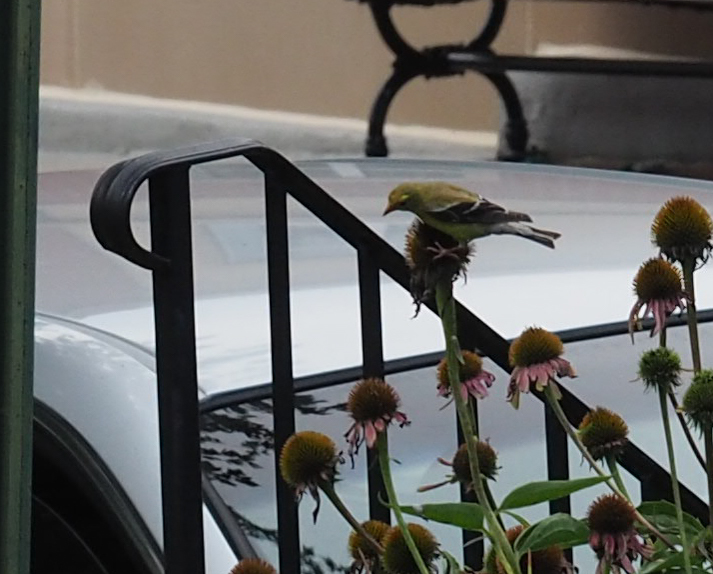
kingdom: Animalia
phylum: Chordata
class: Aves
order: Passeriformes
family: Fringillidae
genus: Spinus
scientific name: Spinus tristis
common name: American goldfinch
